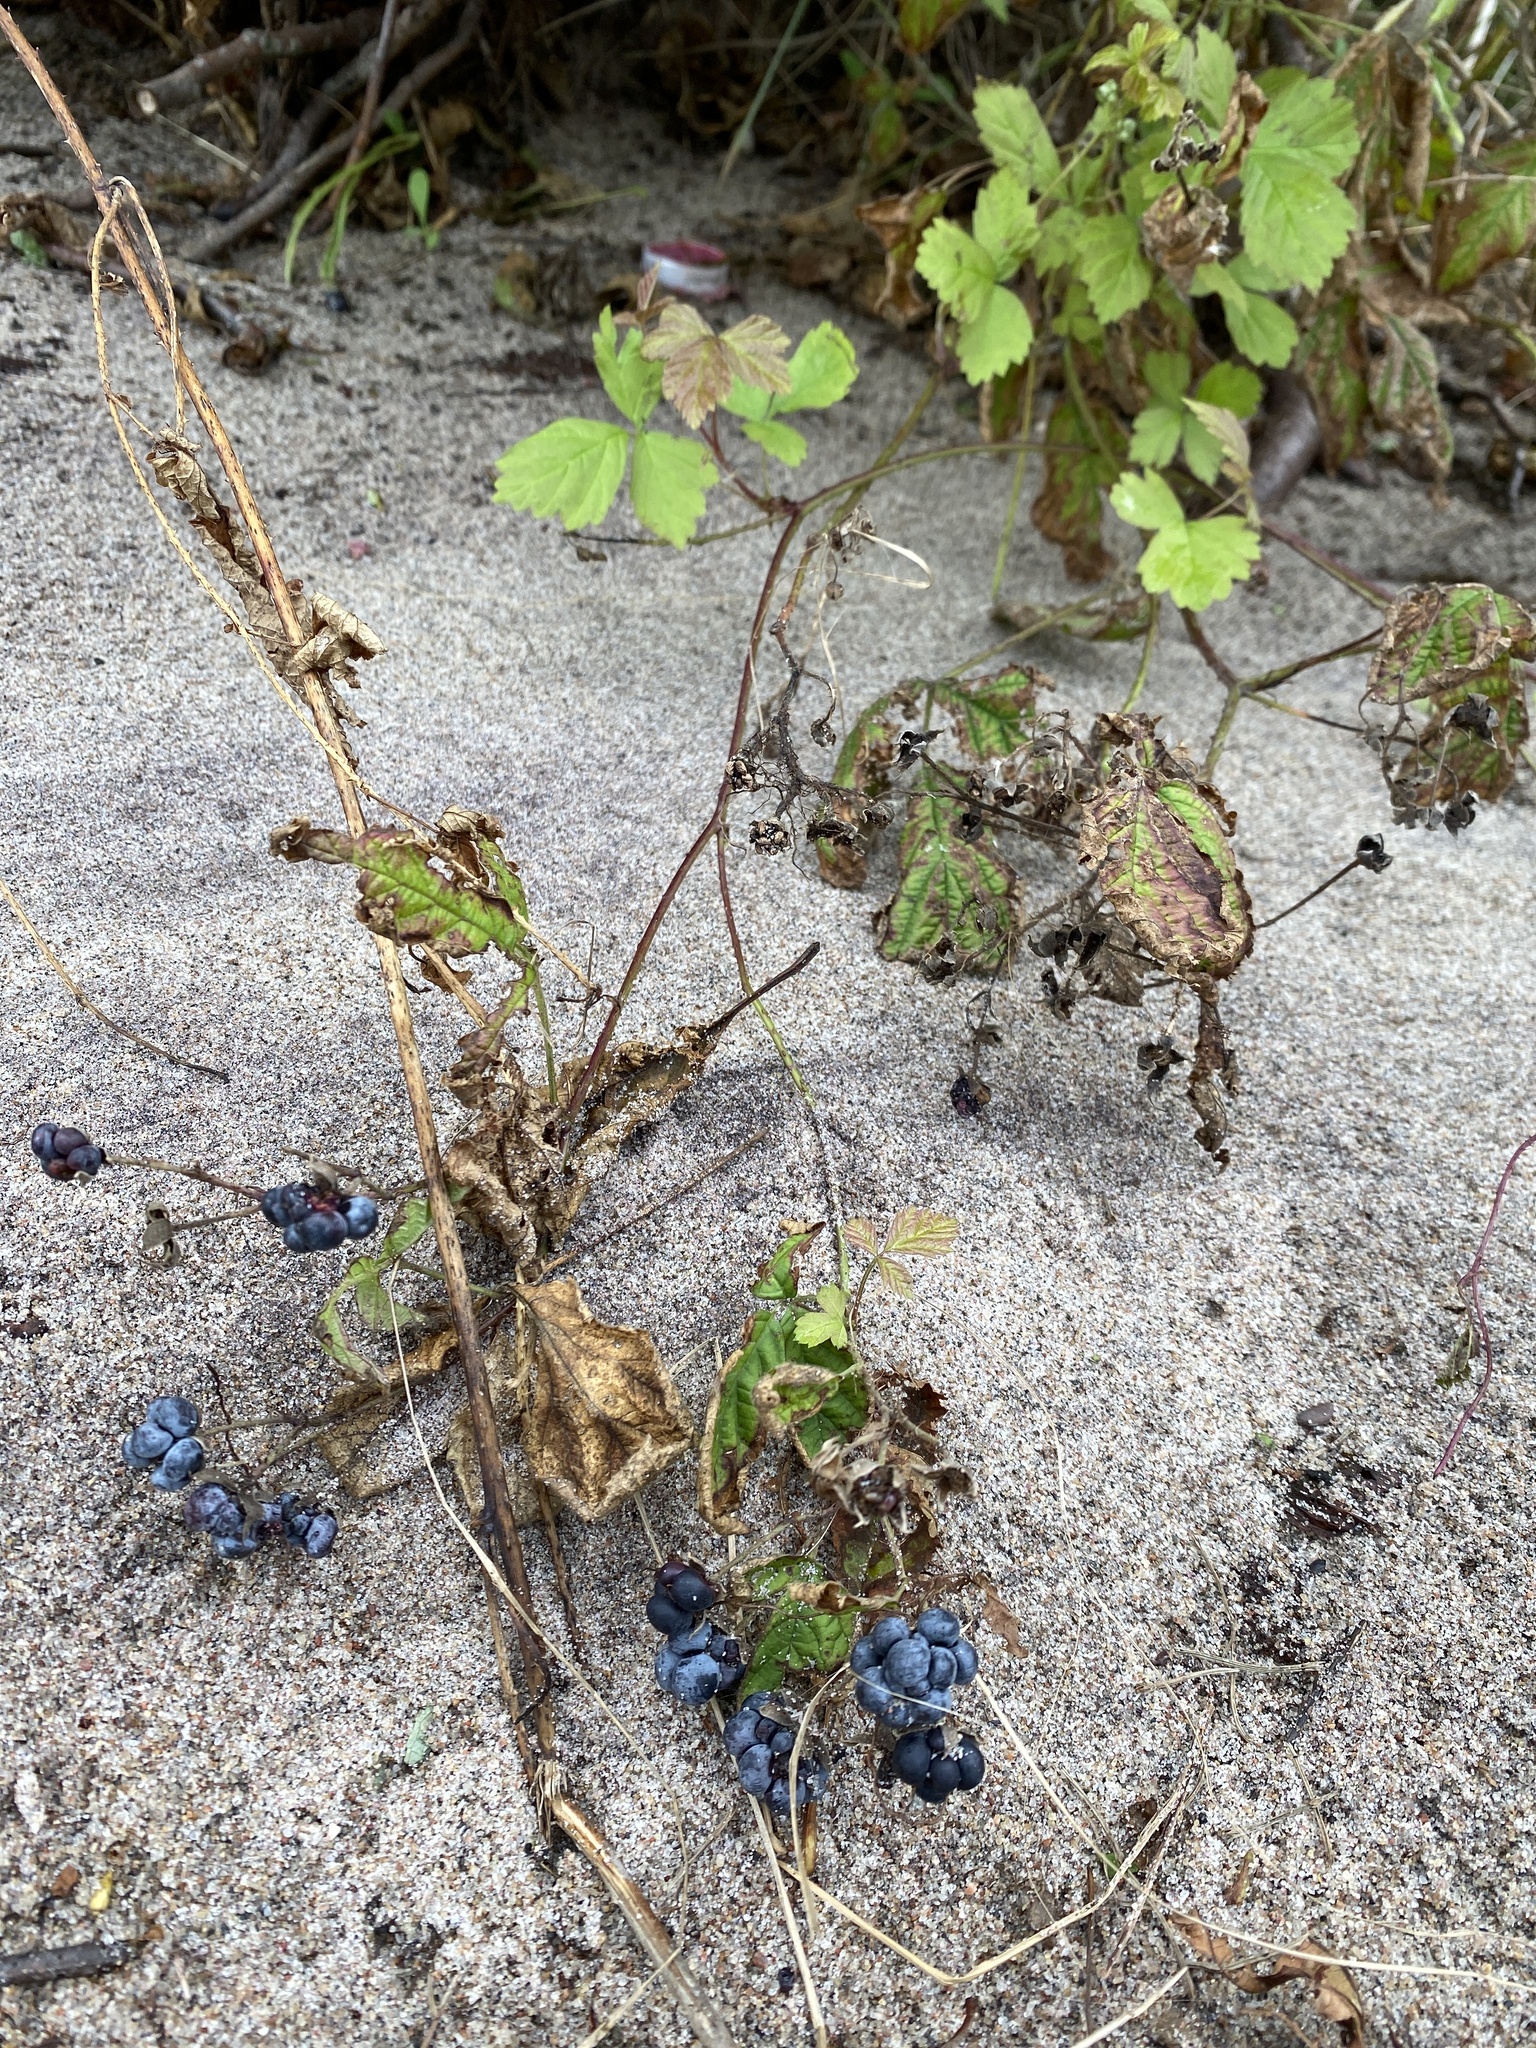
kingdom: Plantae
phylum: Tracheophyta
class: Magnoliopsida
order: Rosales
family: Rosaceae
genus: Rubus
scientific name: Rubus caesius
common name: Dewberry
